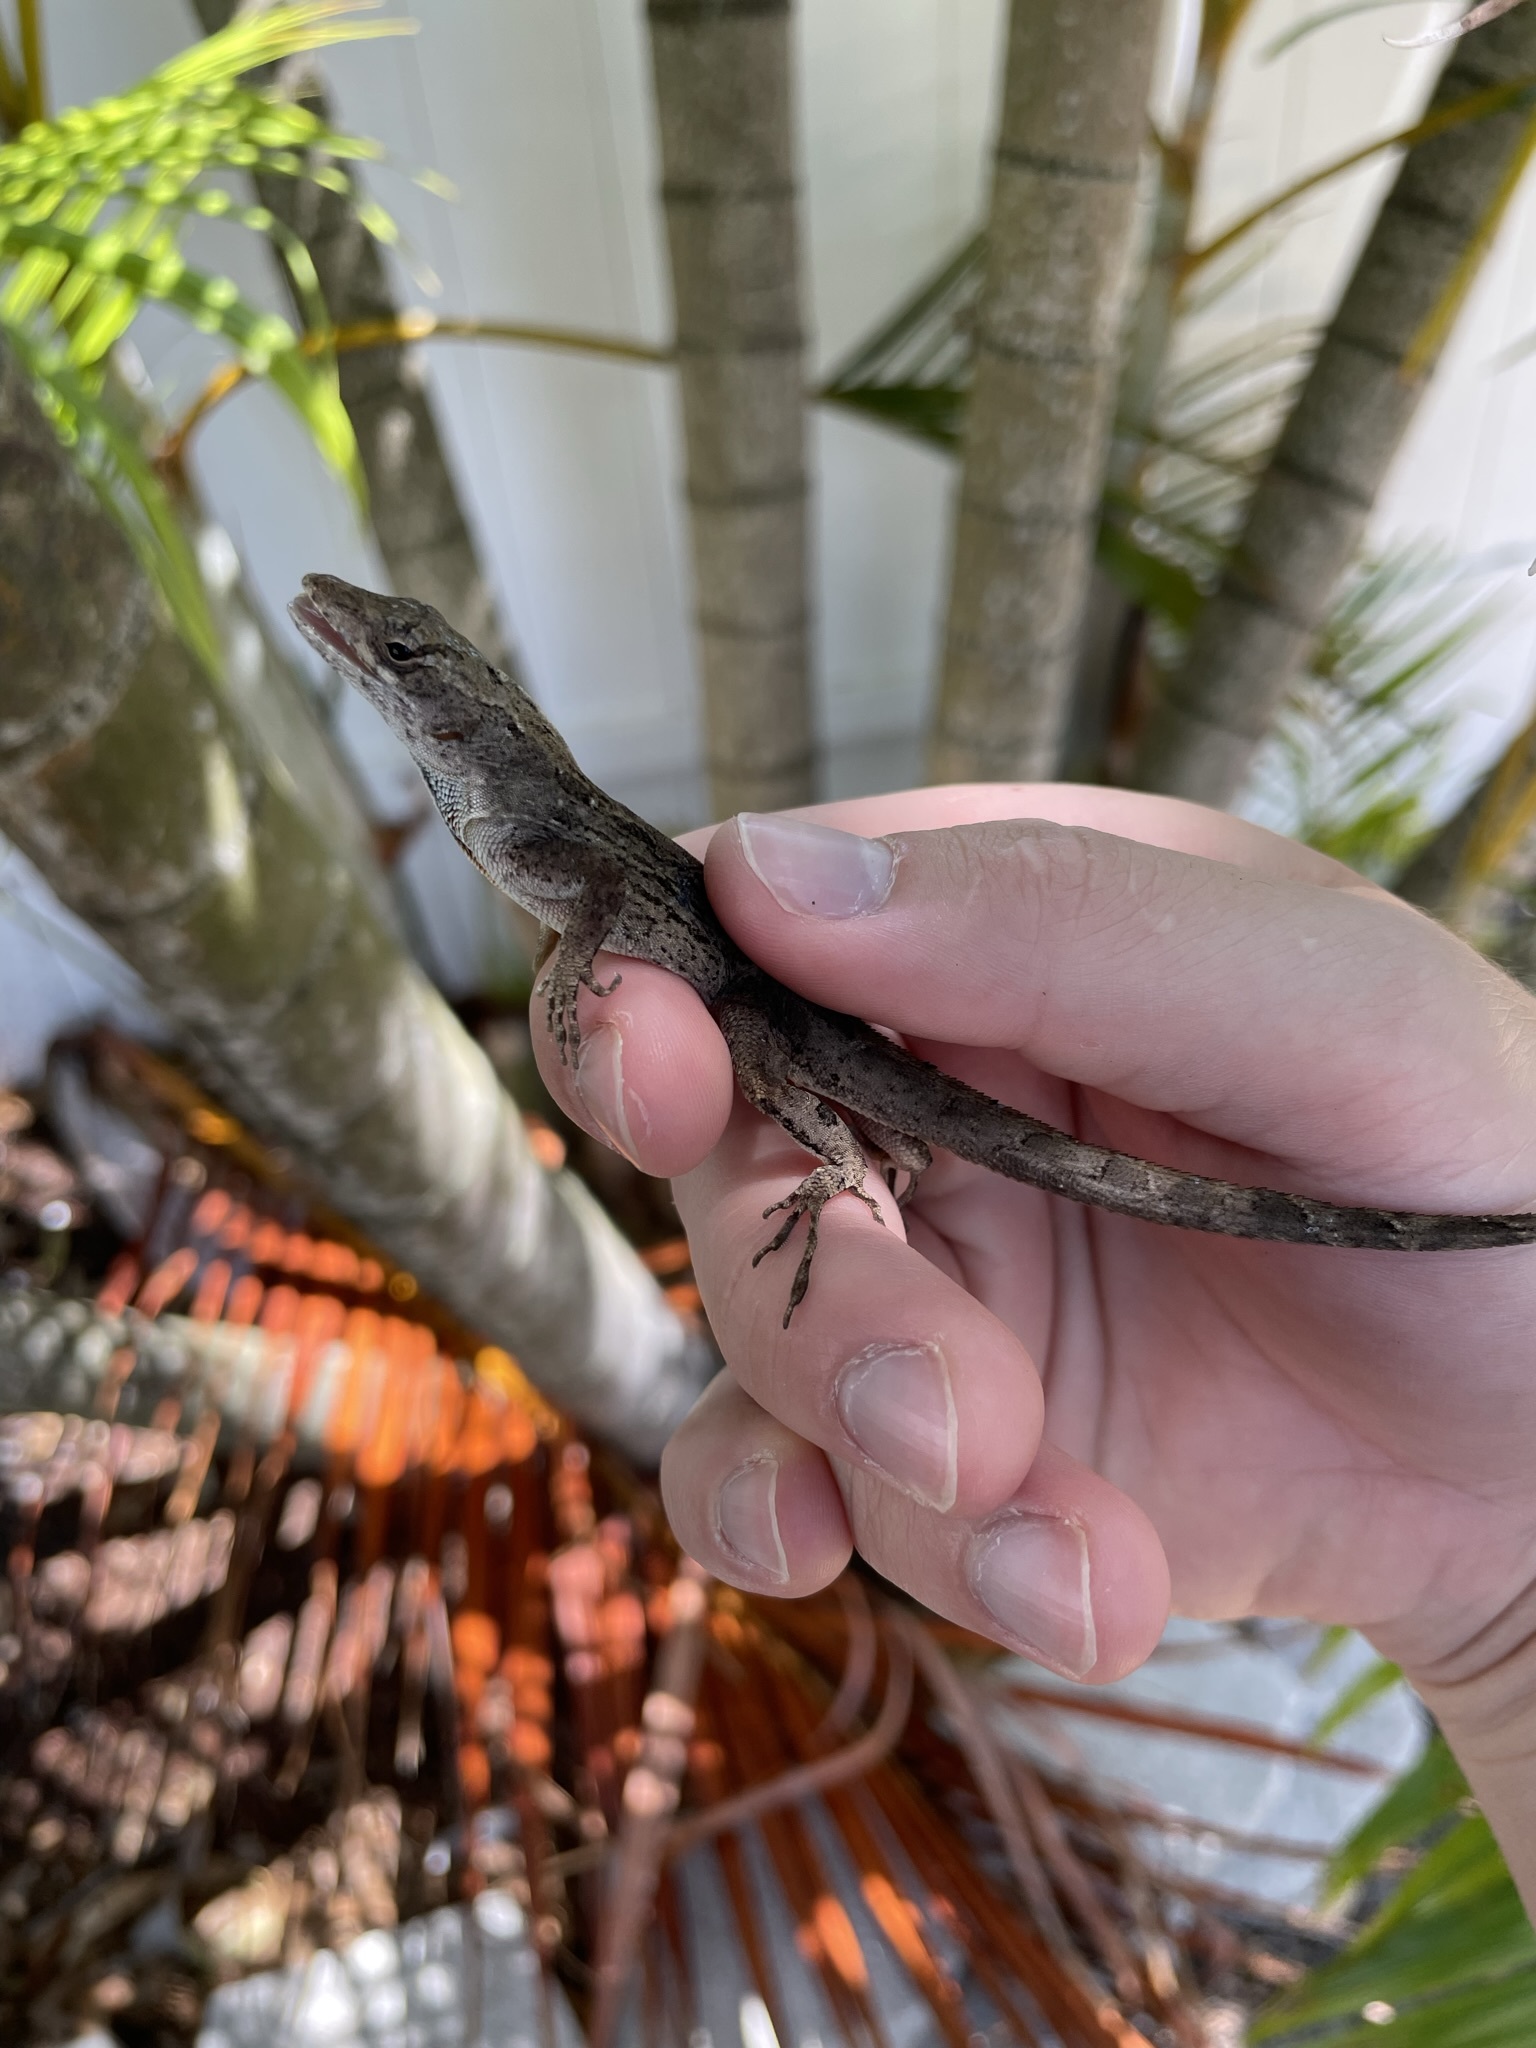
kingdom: Animalia
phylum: Chordata
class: Squamata
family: Dactyloidae
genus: Anolis
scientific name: Anolis sagrei
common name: Brown anole
